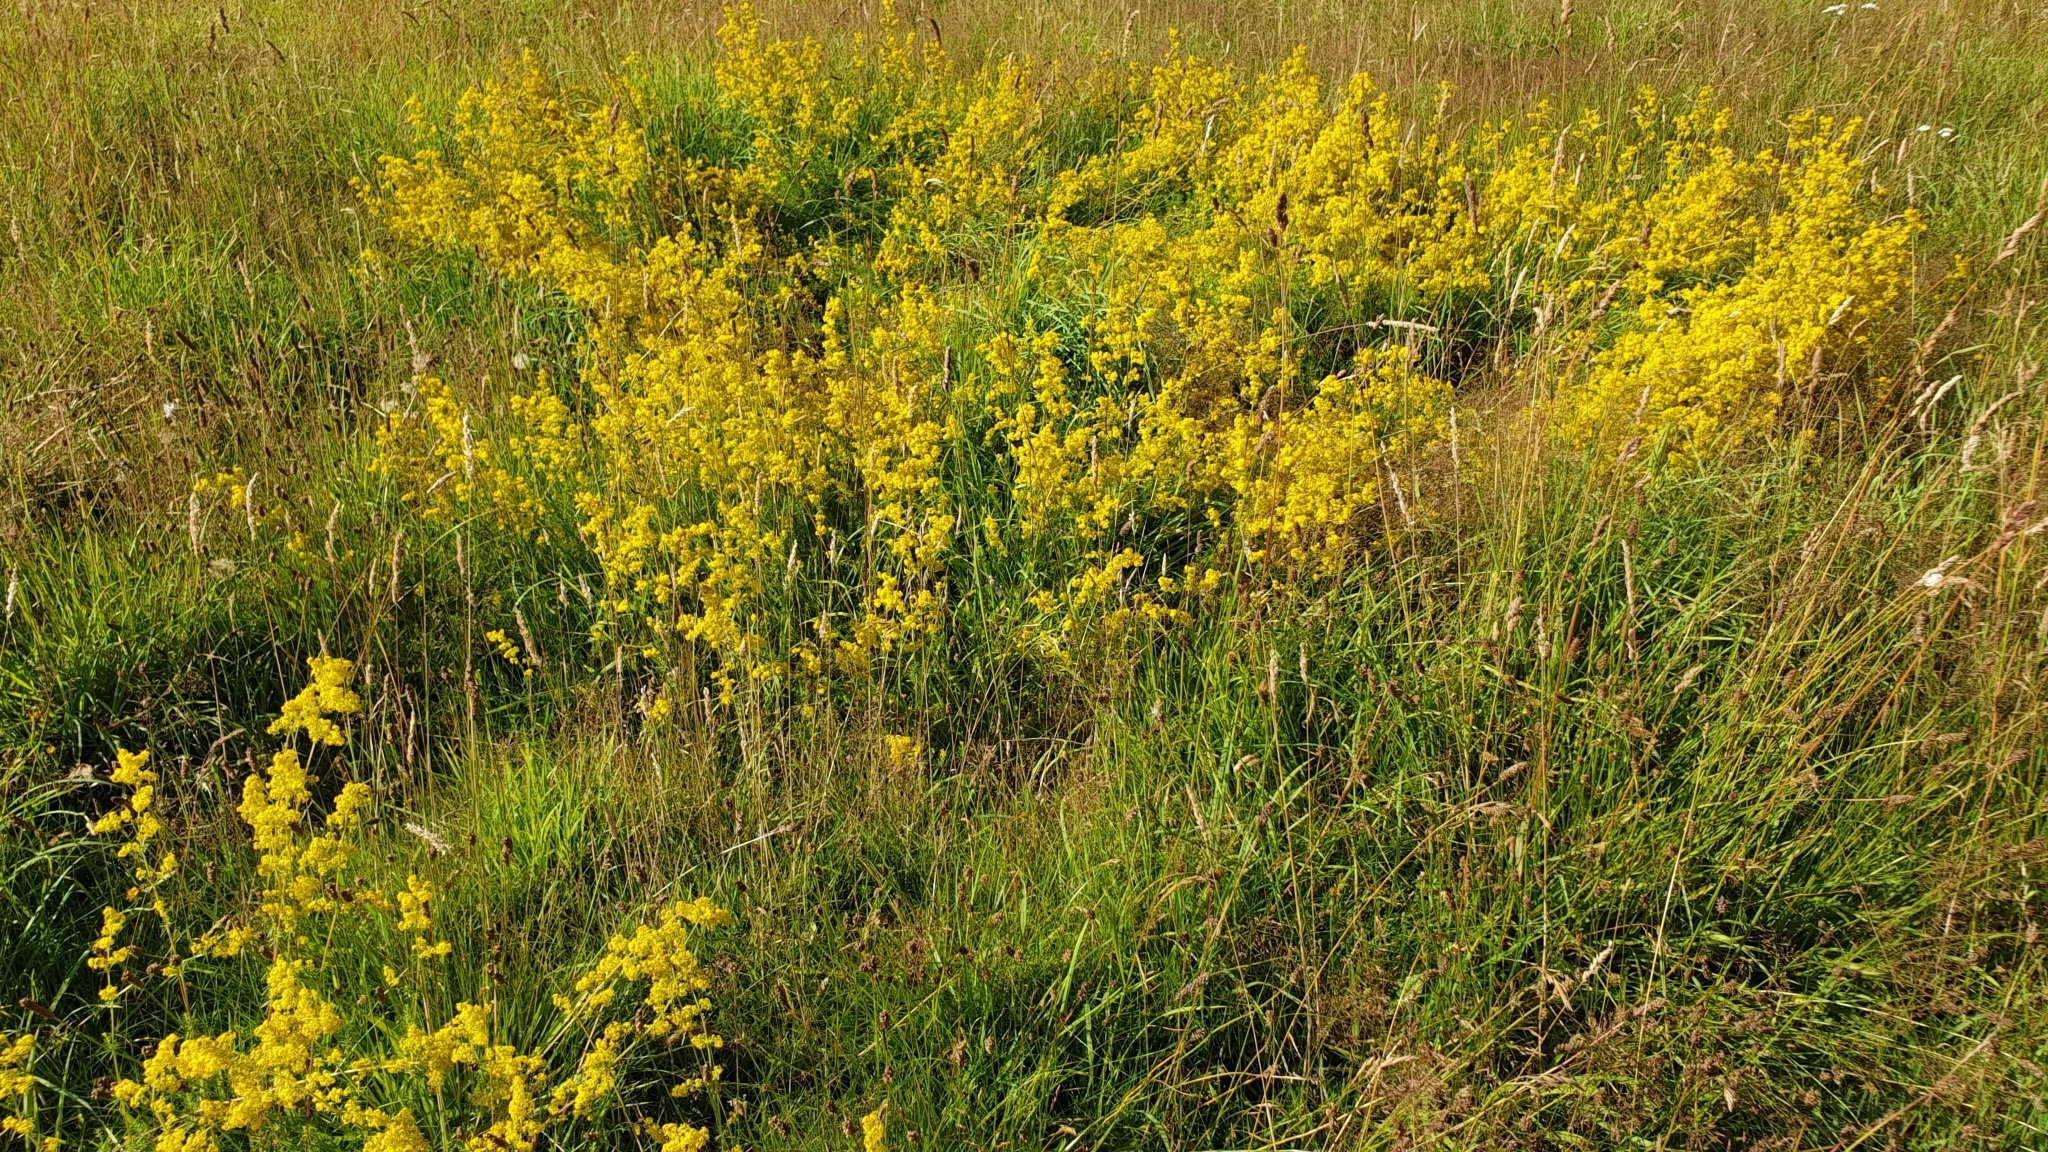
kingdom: Plantae
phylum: Tracheophyta
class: Magnoliopsida
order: Gentianales
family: Rubiaceae
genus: Galium
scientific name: Galium verum
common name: Lady's bedstraw
